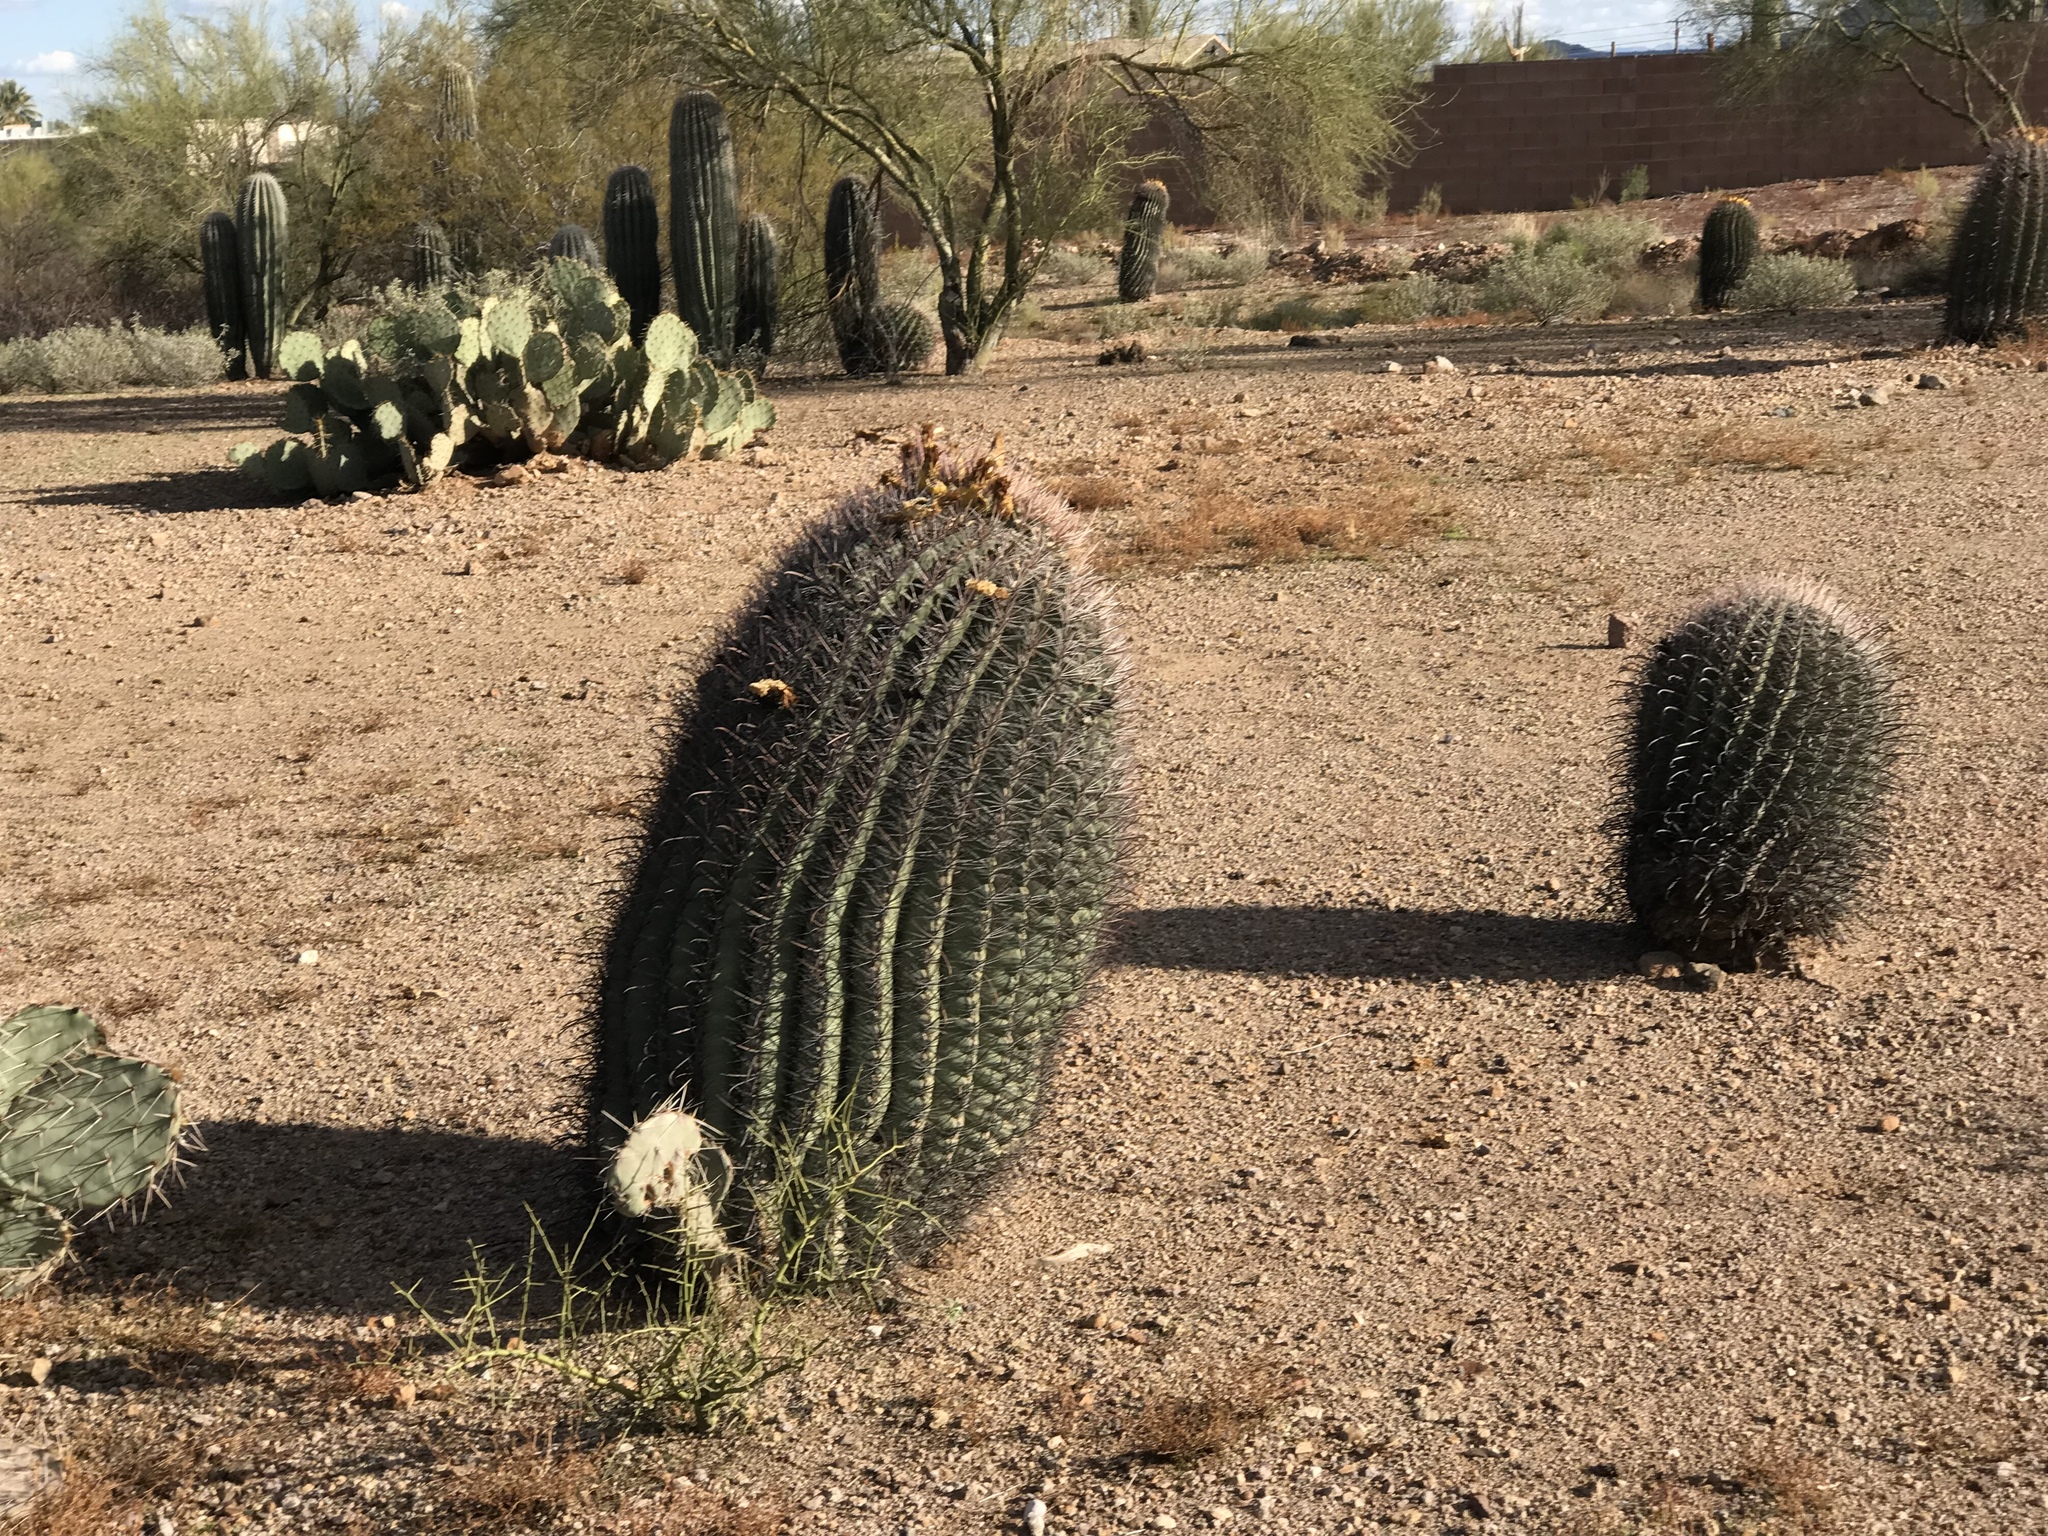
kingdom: Plantae
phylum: Tracheophyta
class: Magnoliopsida
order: Caryophyllales
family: Cactaceae
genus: Ferocactus
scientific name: Ferocactus wislizeni
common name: Candy barrel cactus
